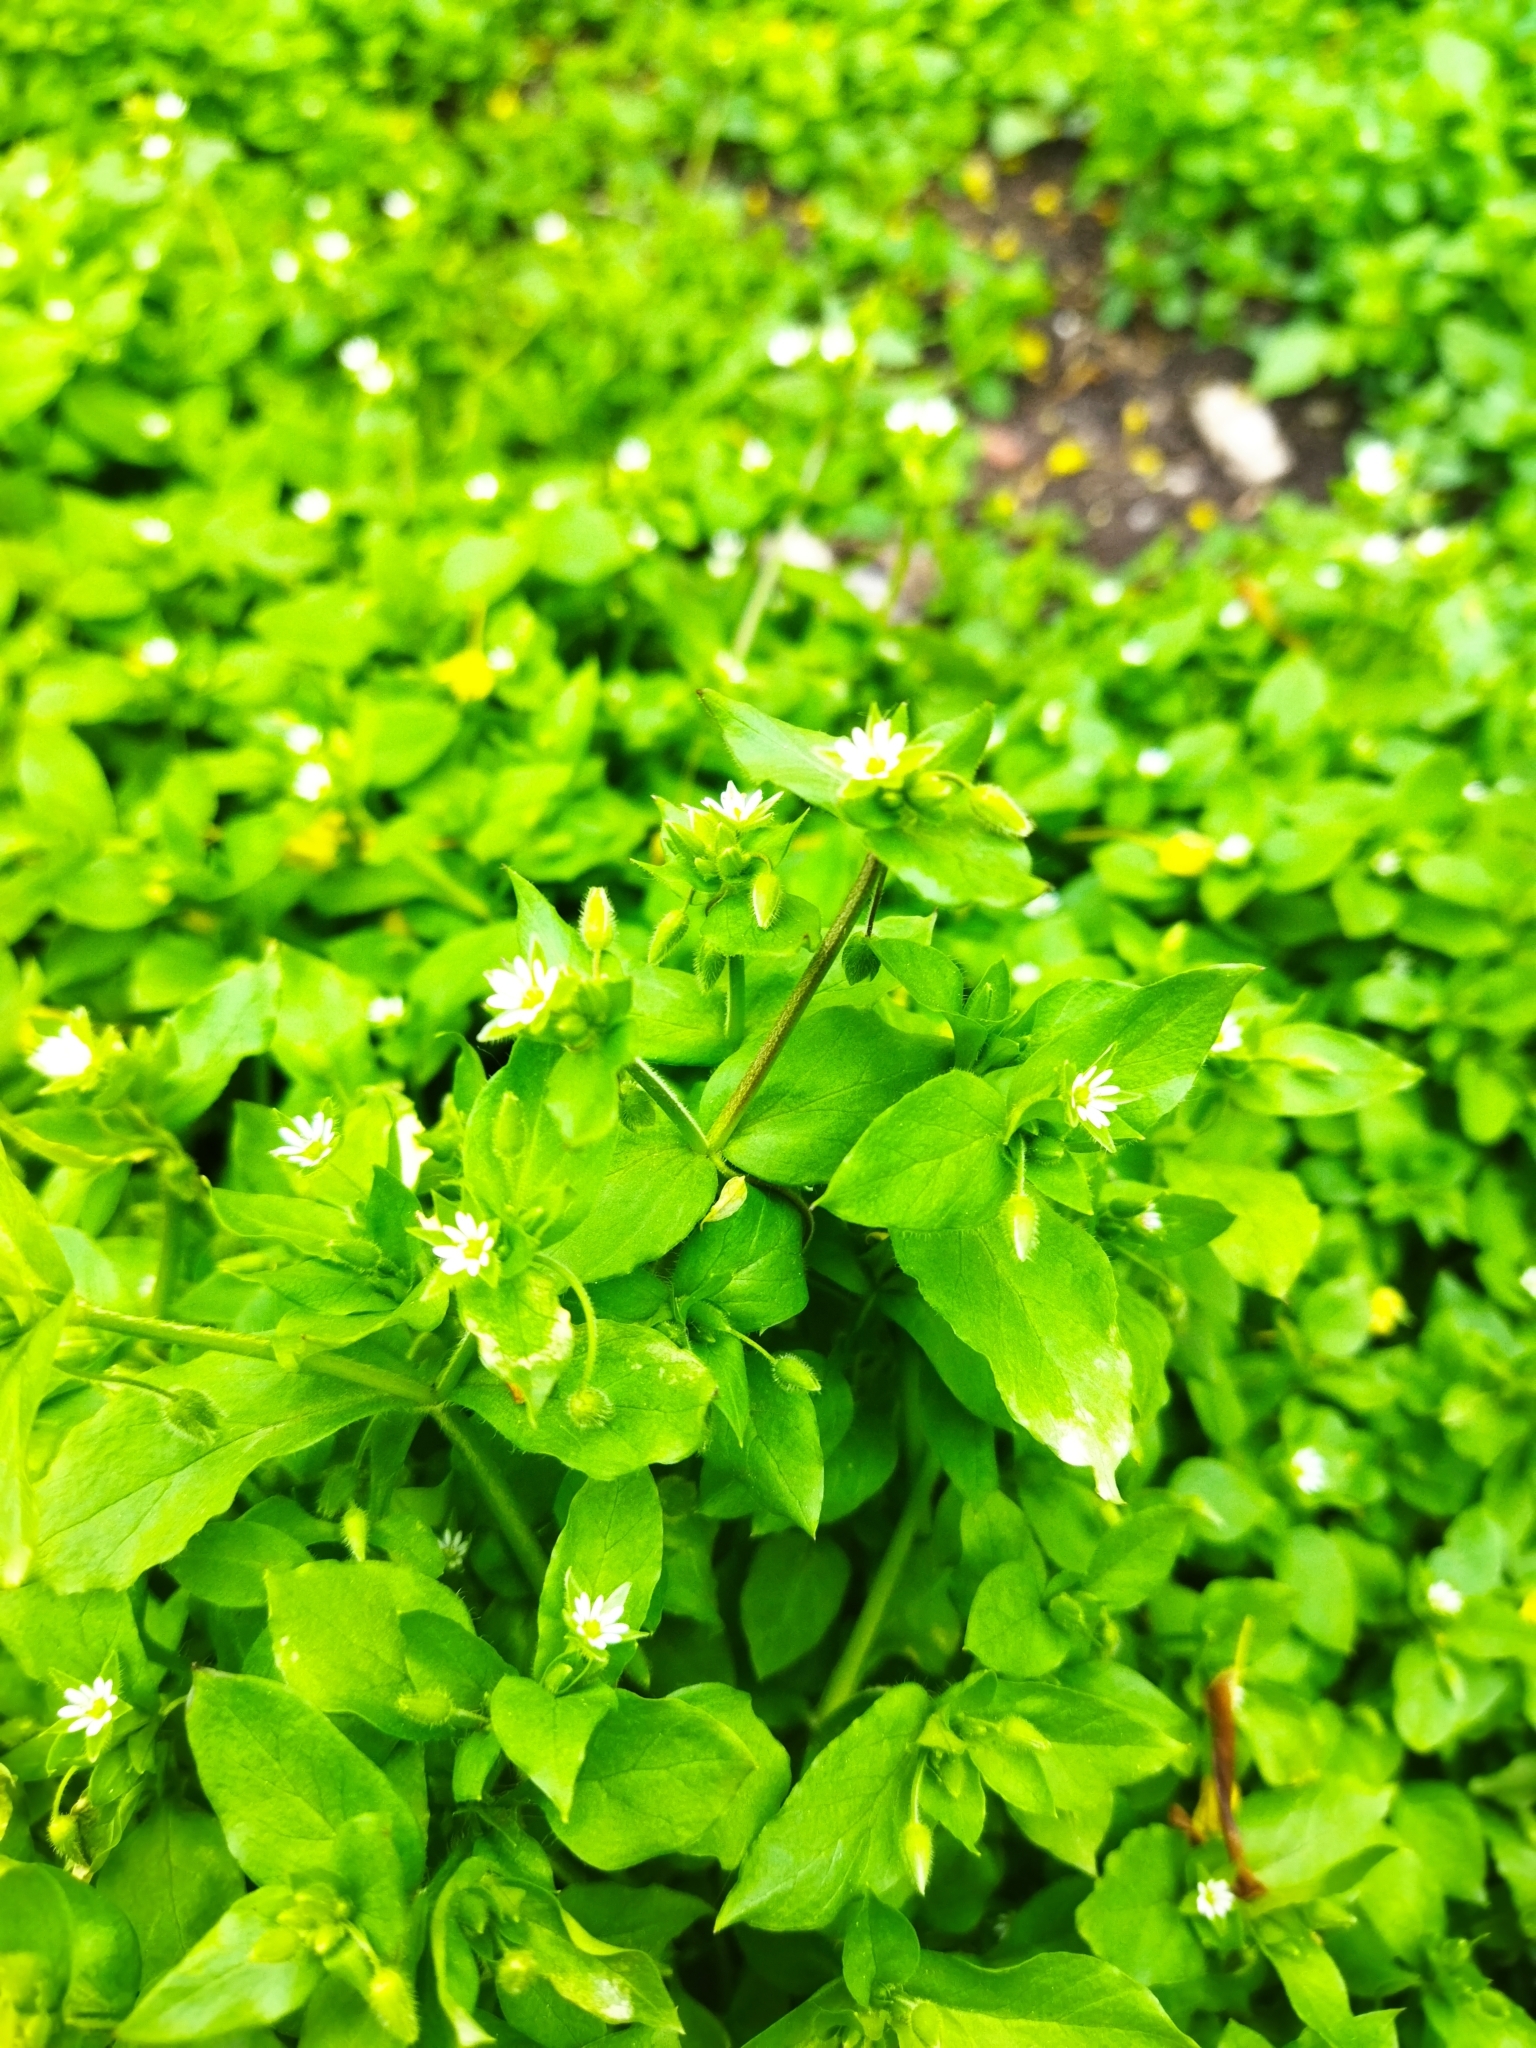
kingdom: Plantae
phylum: Tracheophyta
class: Magnoliopsida
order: Caryophyllales
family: Caryophyllaceae
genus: Stellaria
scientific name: Stellaria media
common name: Common chickweed
